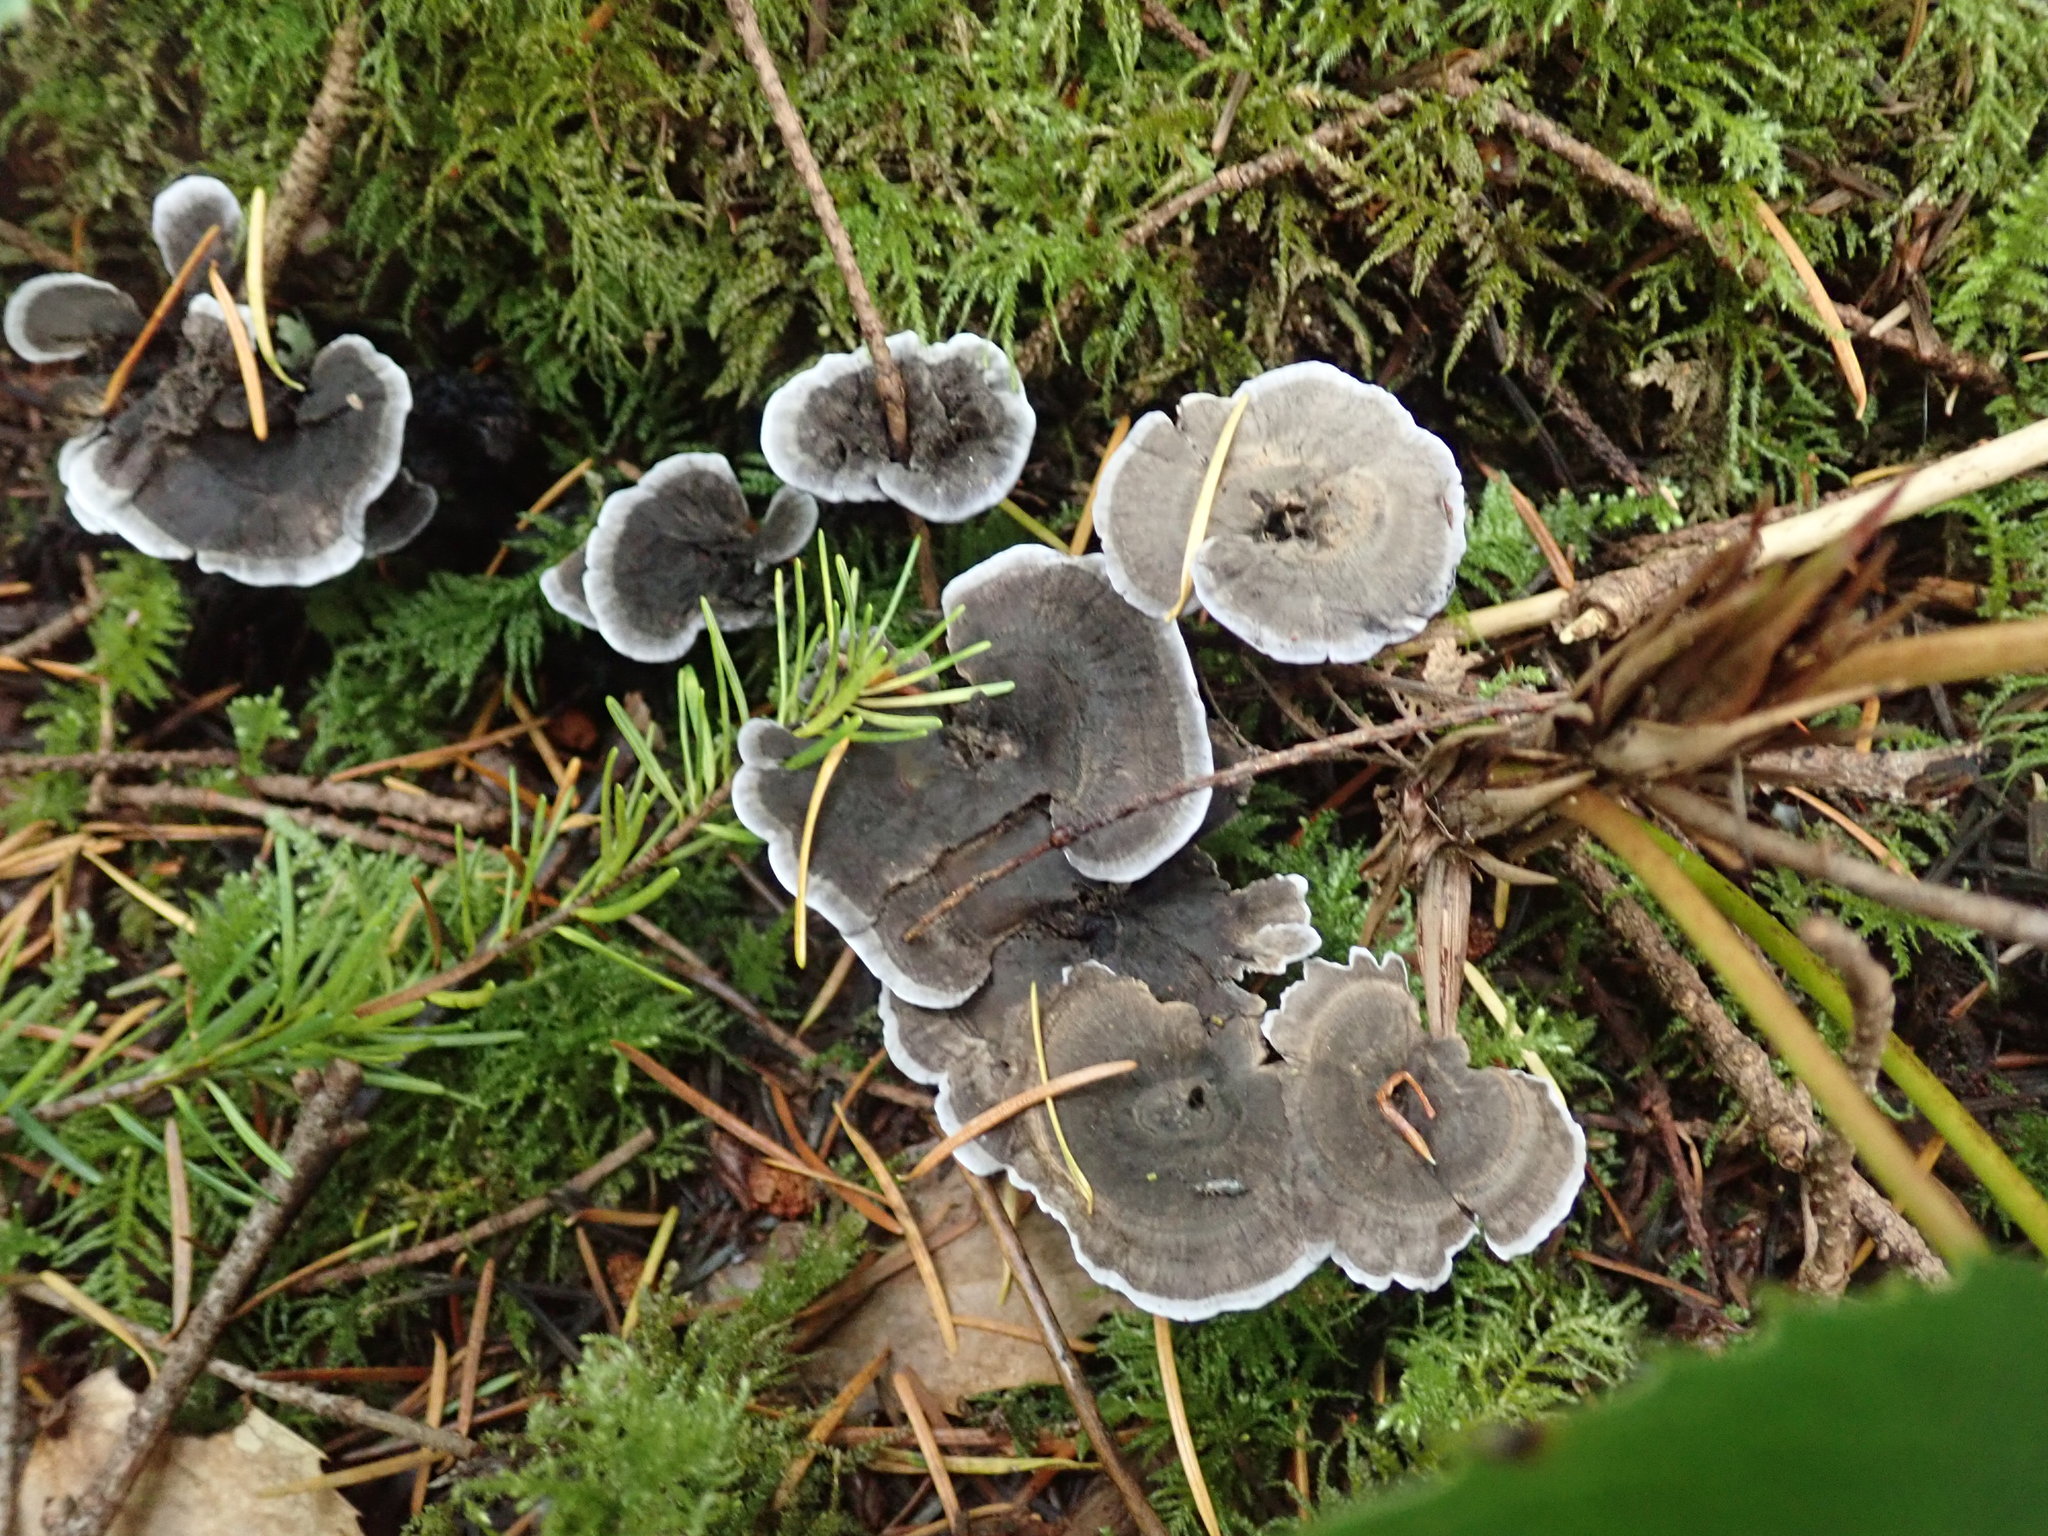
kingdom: Fungi
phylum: Basidiomycota
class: Agaricomycetes
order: Thelephorales
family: Thelephoraceae
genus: Phellodon
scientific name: Phellodon atratus
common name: Blue-black tooth
